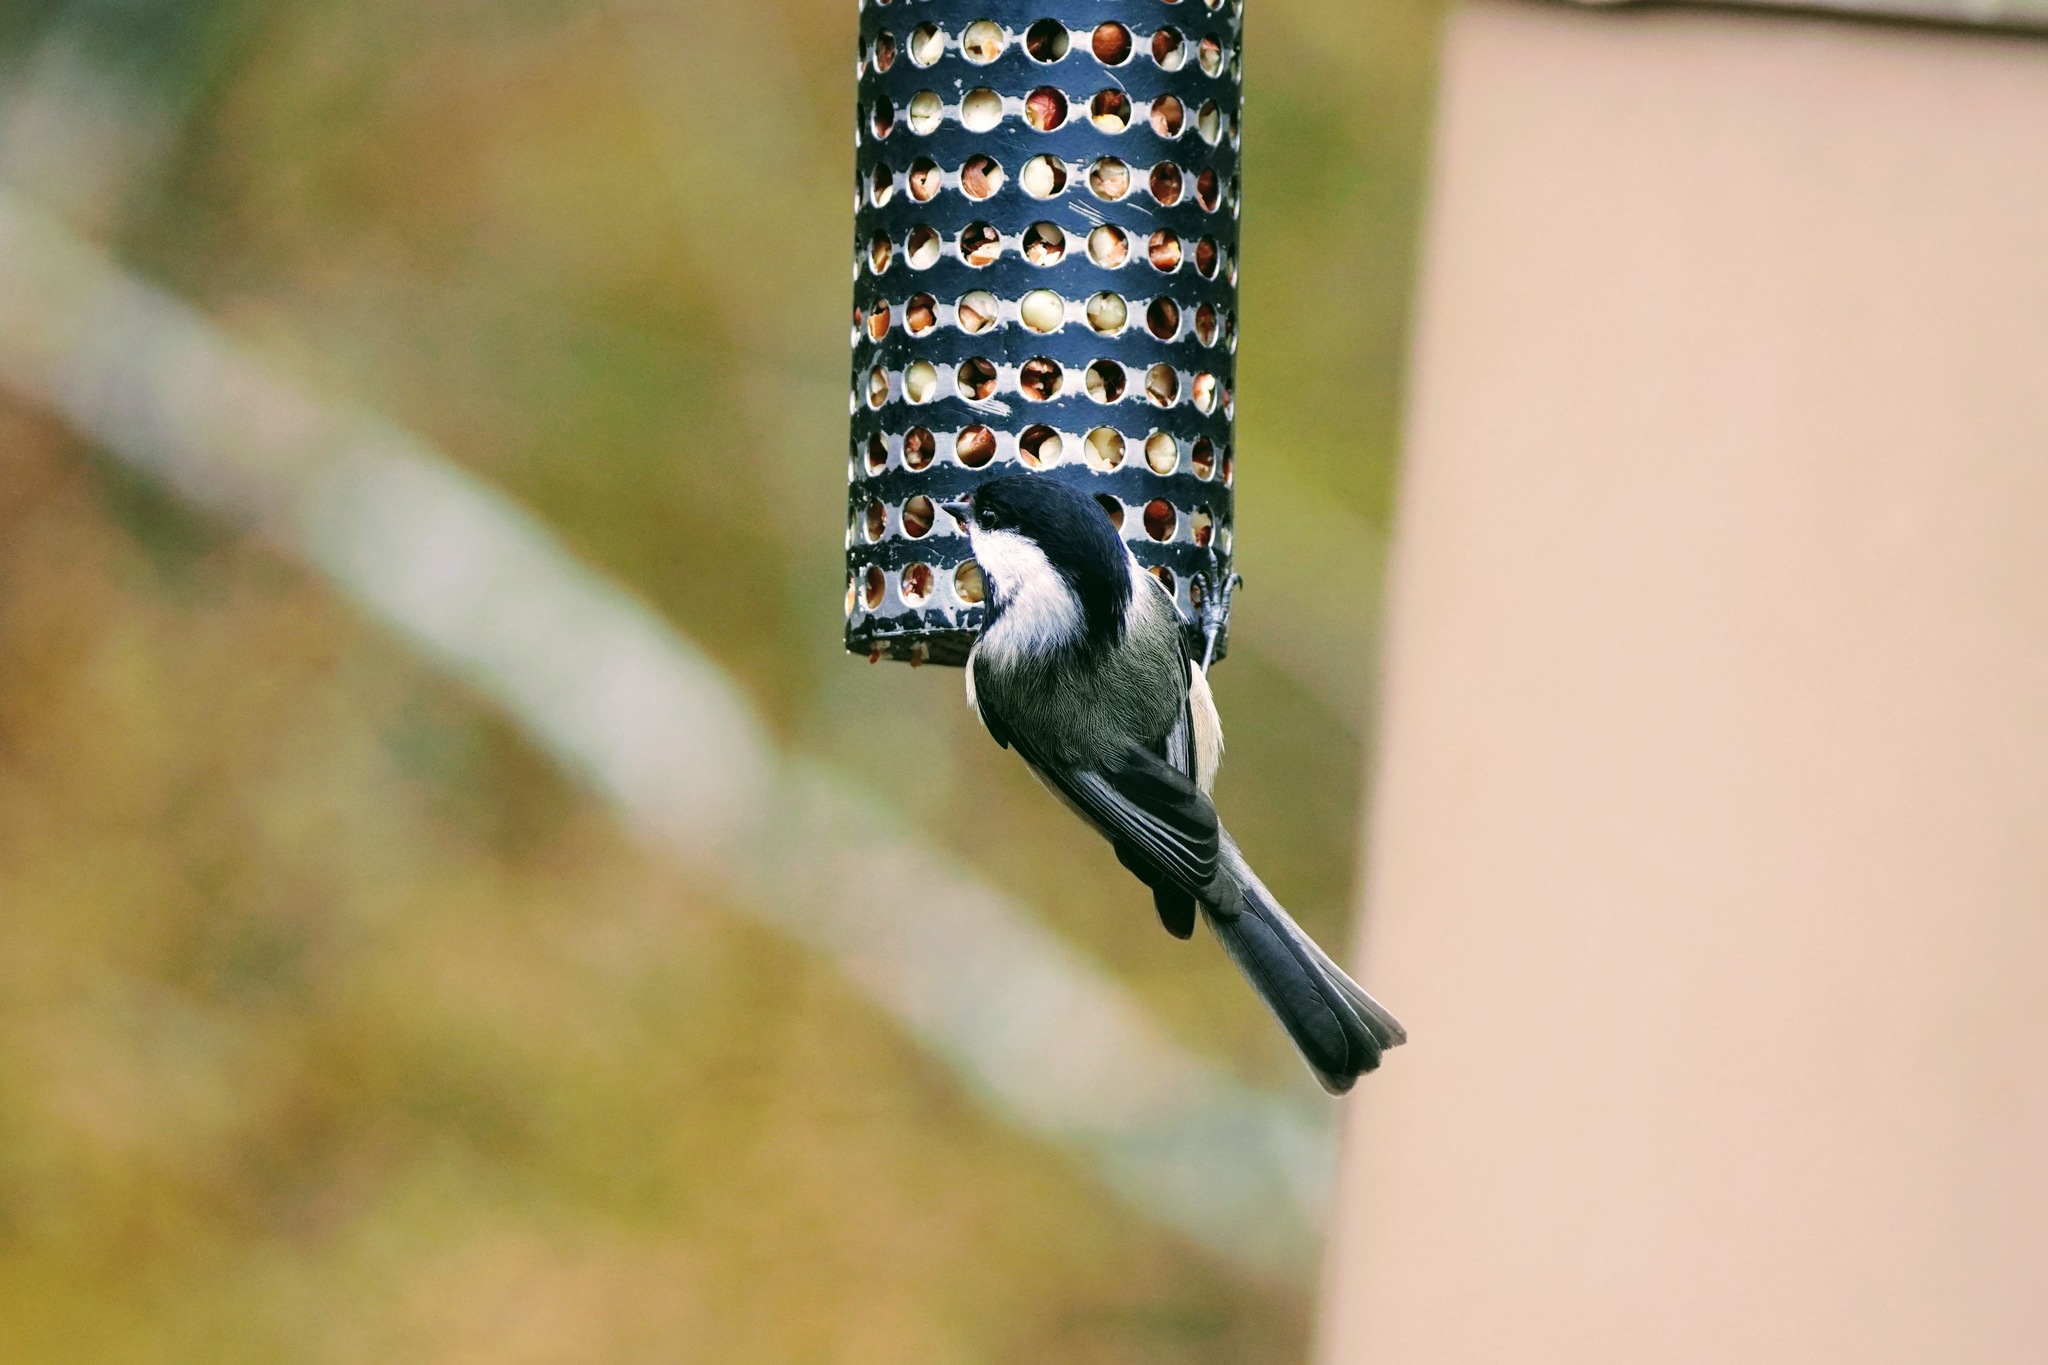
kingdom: Animalia
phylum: Chordata
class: Aves
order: Passeriformes
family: Paridae
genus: Poecile
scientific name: Poecile atricapillus
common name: Black-capped chickadee
